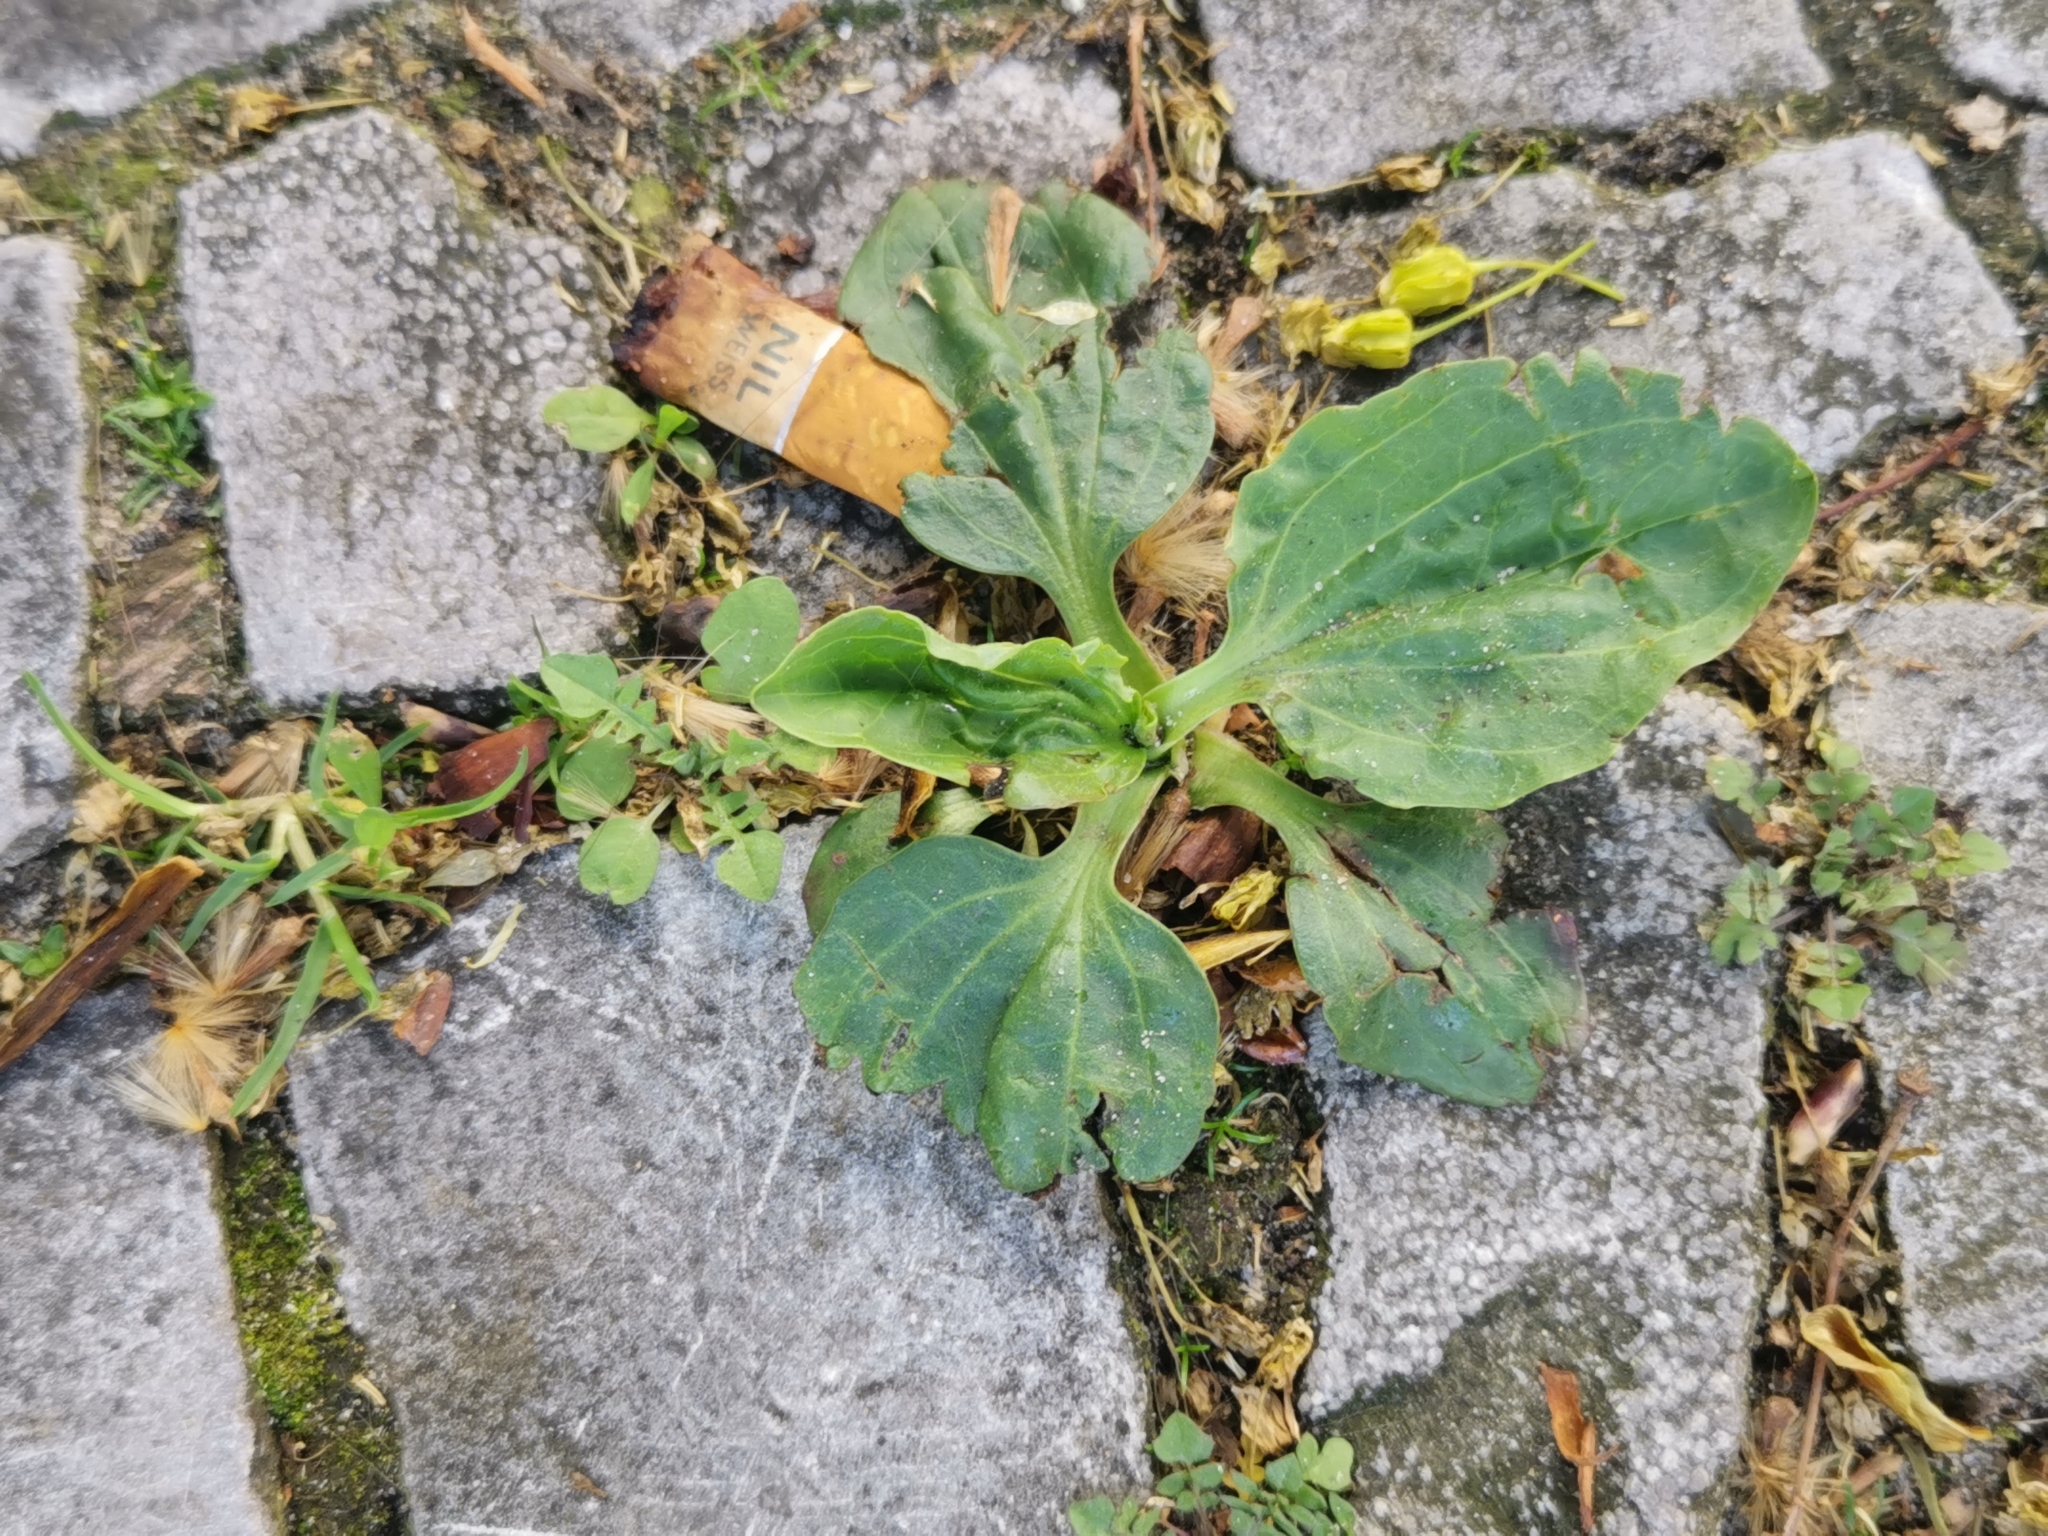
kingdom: Plantae
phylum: Tracheophyta
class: Magnoliopsida
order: Lamiales
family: Plantaginaceae
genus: Plantago
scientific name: Plantago major
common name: Common plantain
